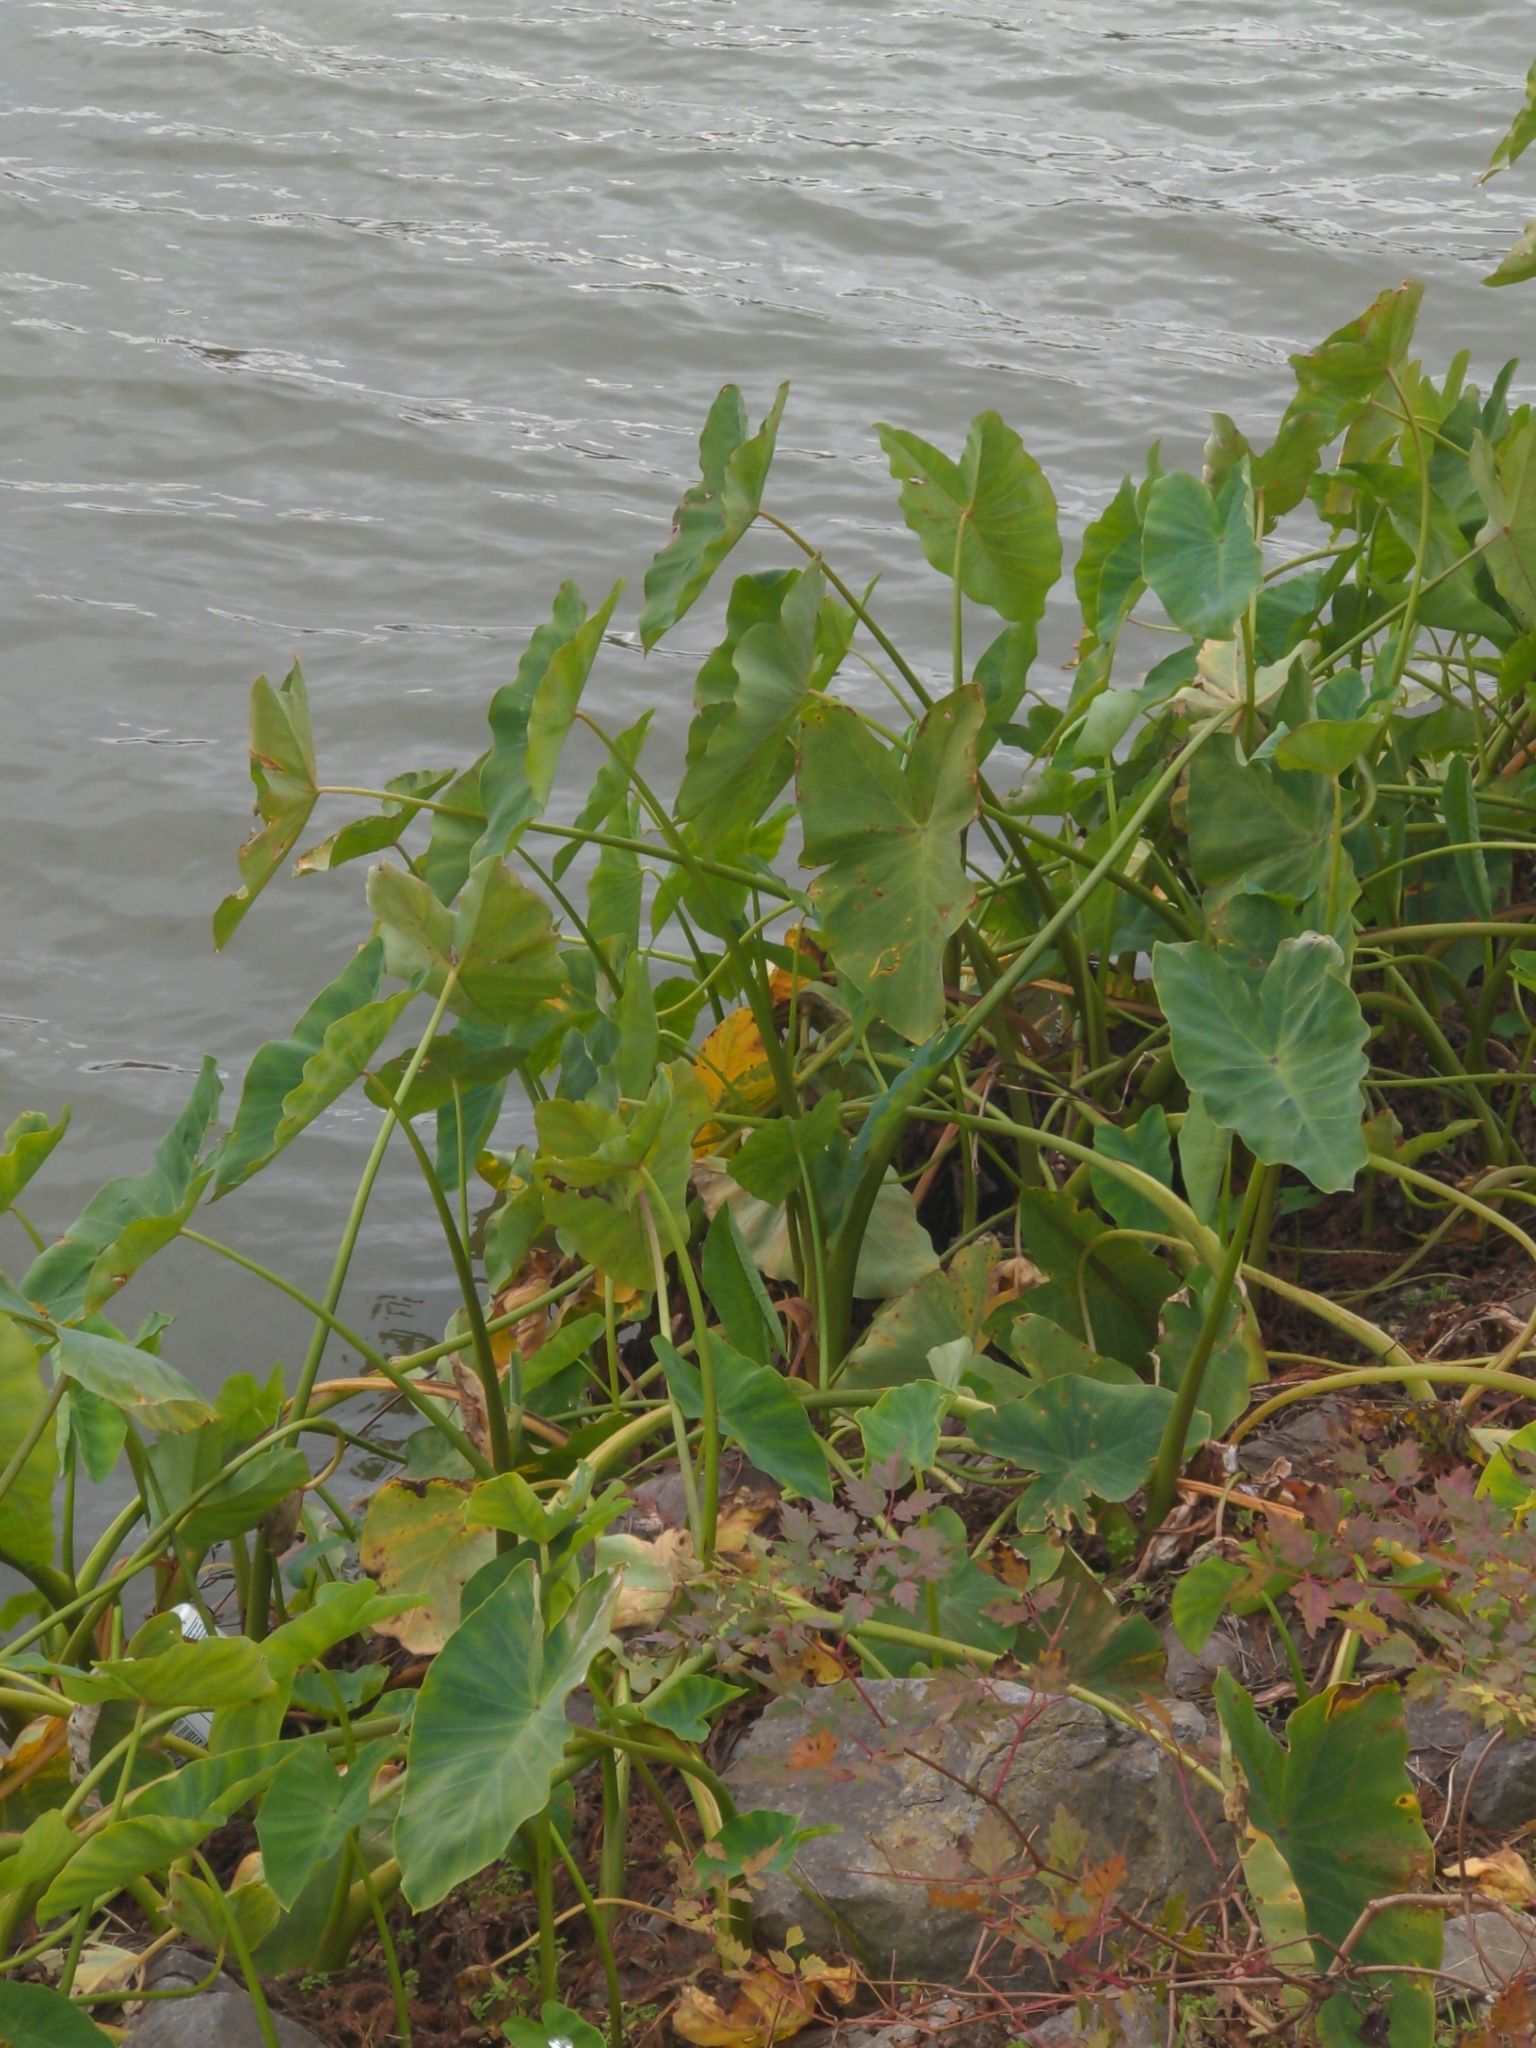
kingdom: Plantae
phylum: Tracheophyta
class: Liliopsida
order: Alismatales
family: Araceae
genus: Colocasia
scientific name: Colocasia esculenta
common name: Taro
